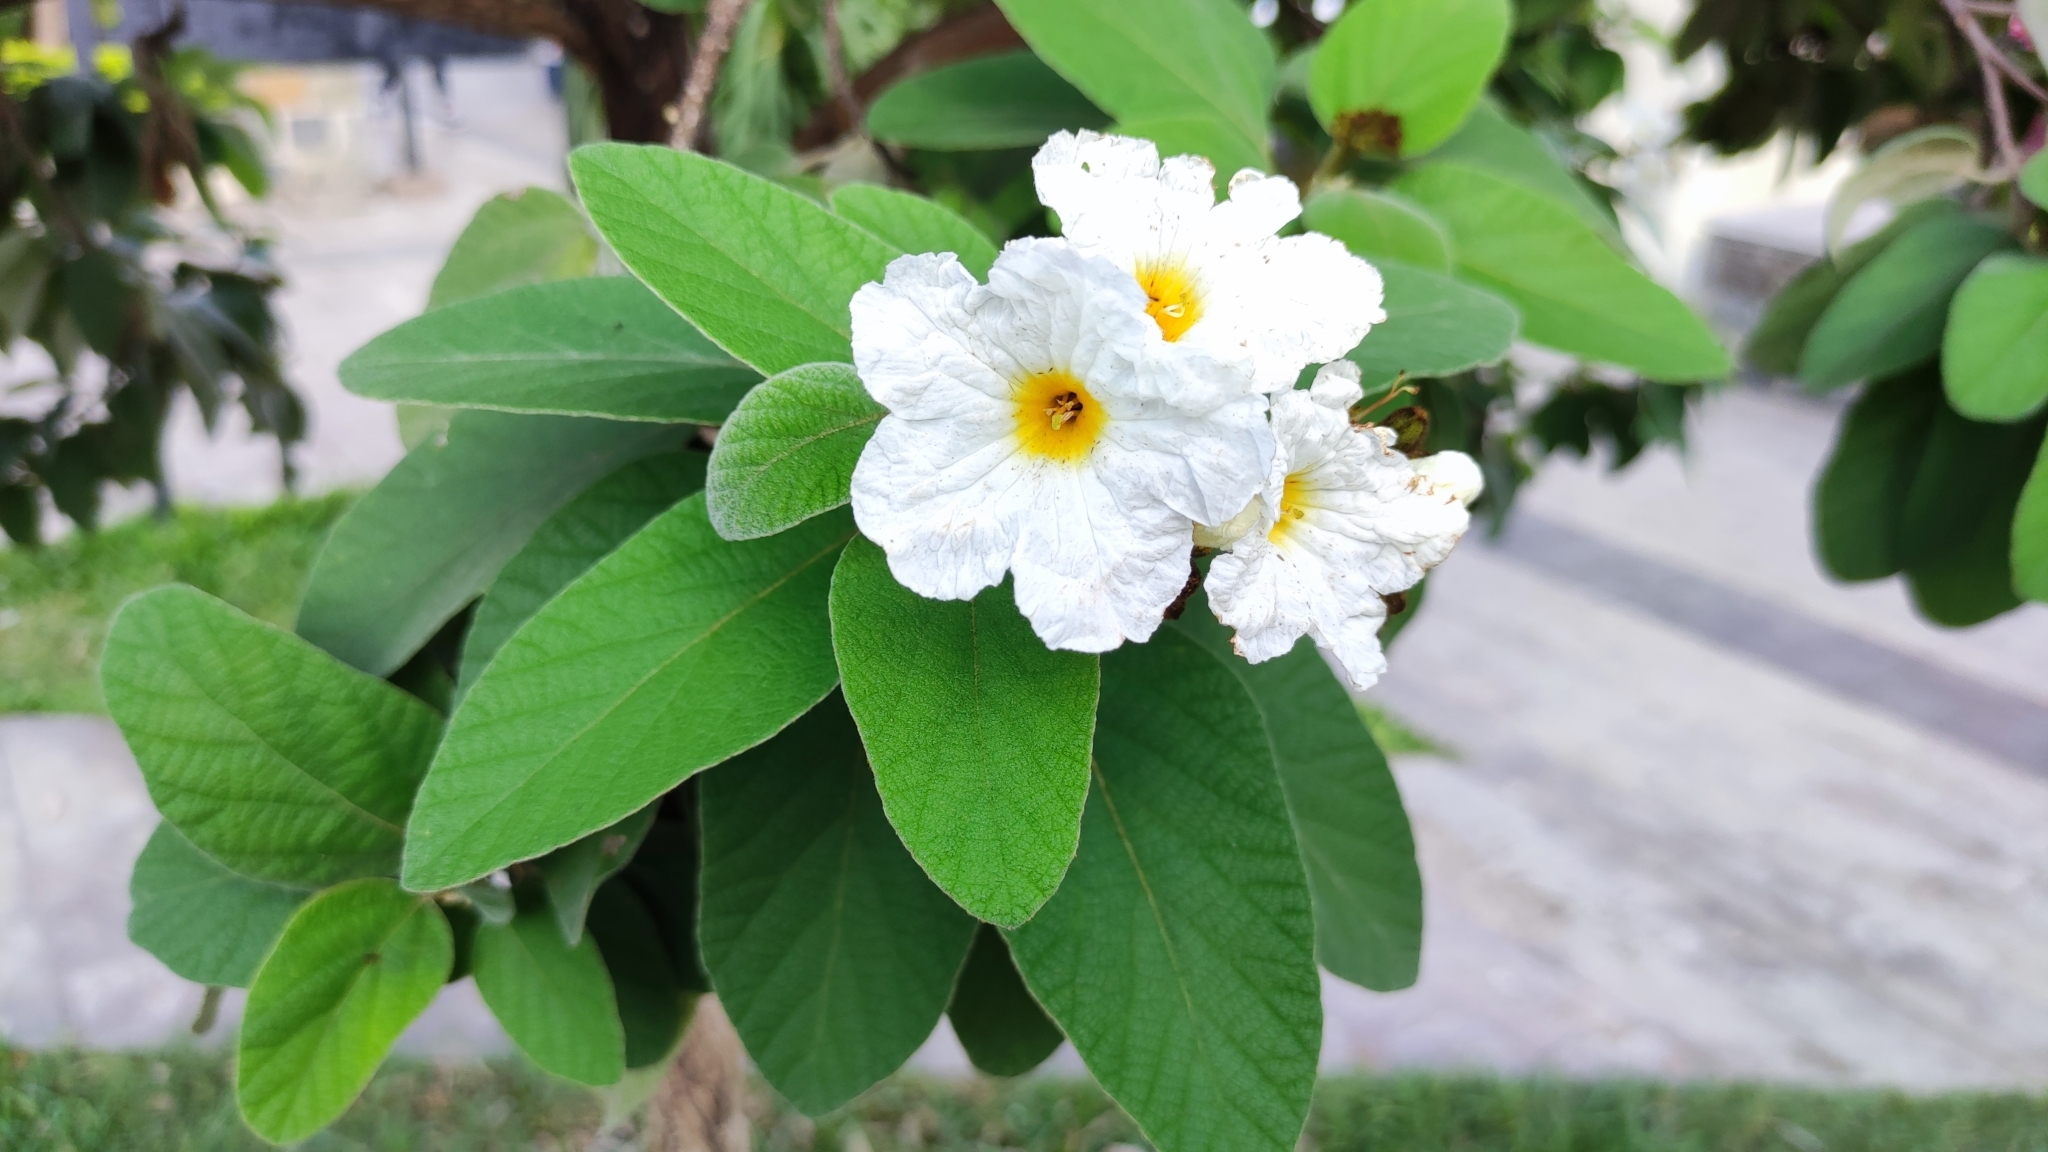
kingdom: Plantae
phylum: Tracheophyta
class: Magnoliopsida
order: Boraginales
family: Cordiaceae
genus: Cordia
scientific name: Cordia boissieri
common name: Mexican-olive
